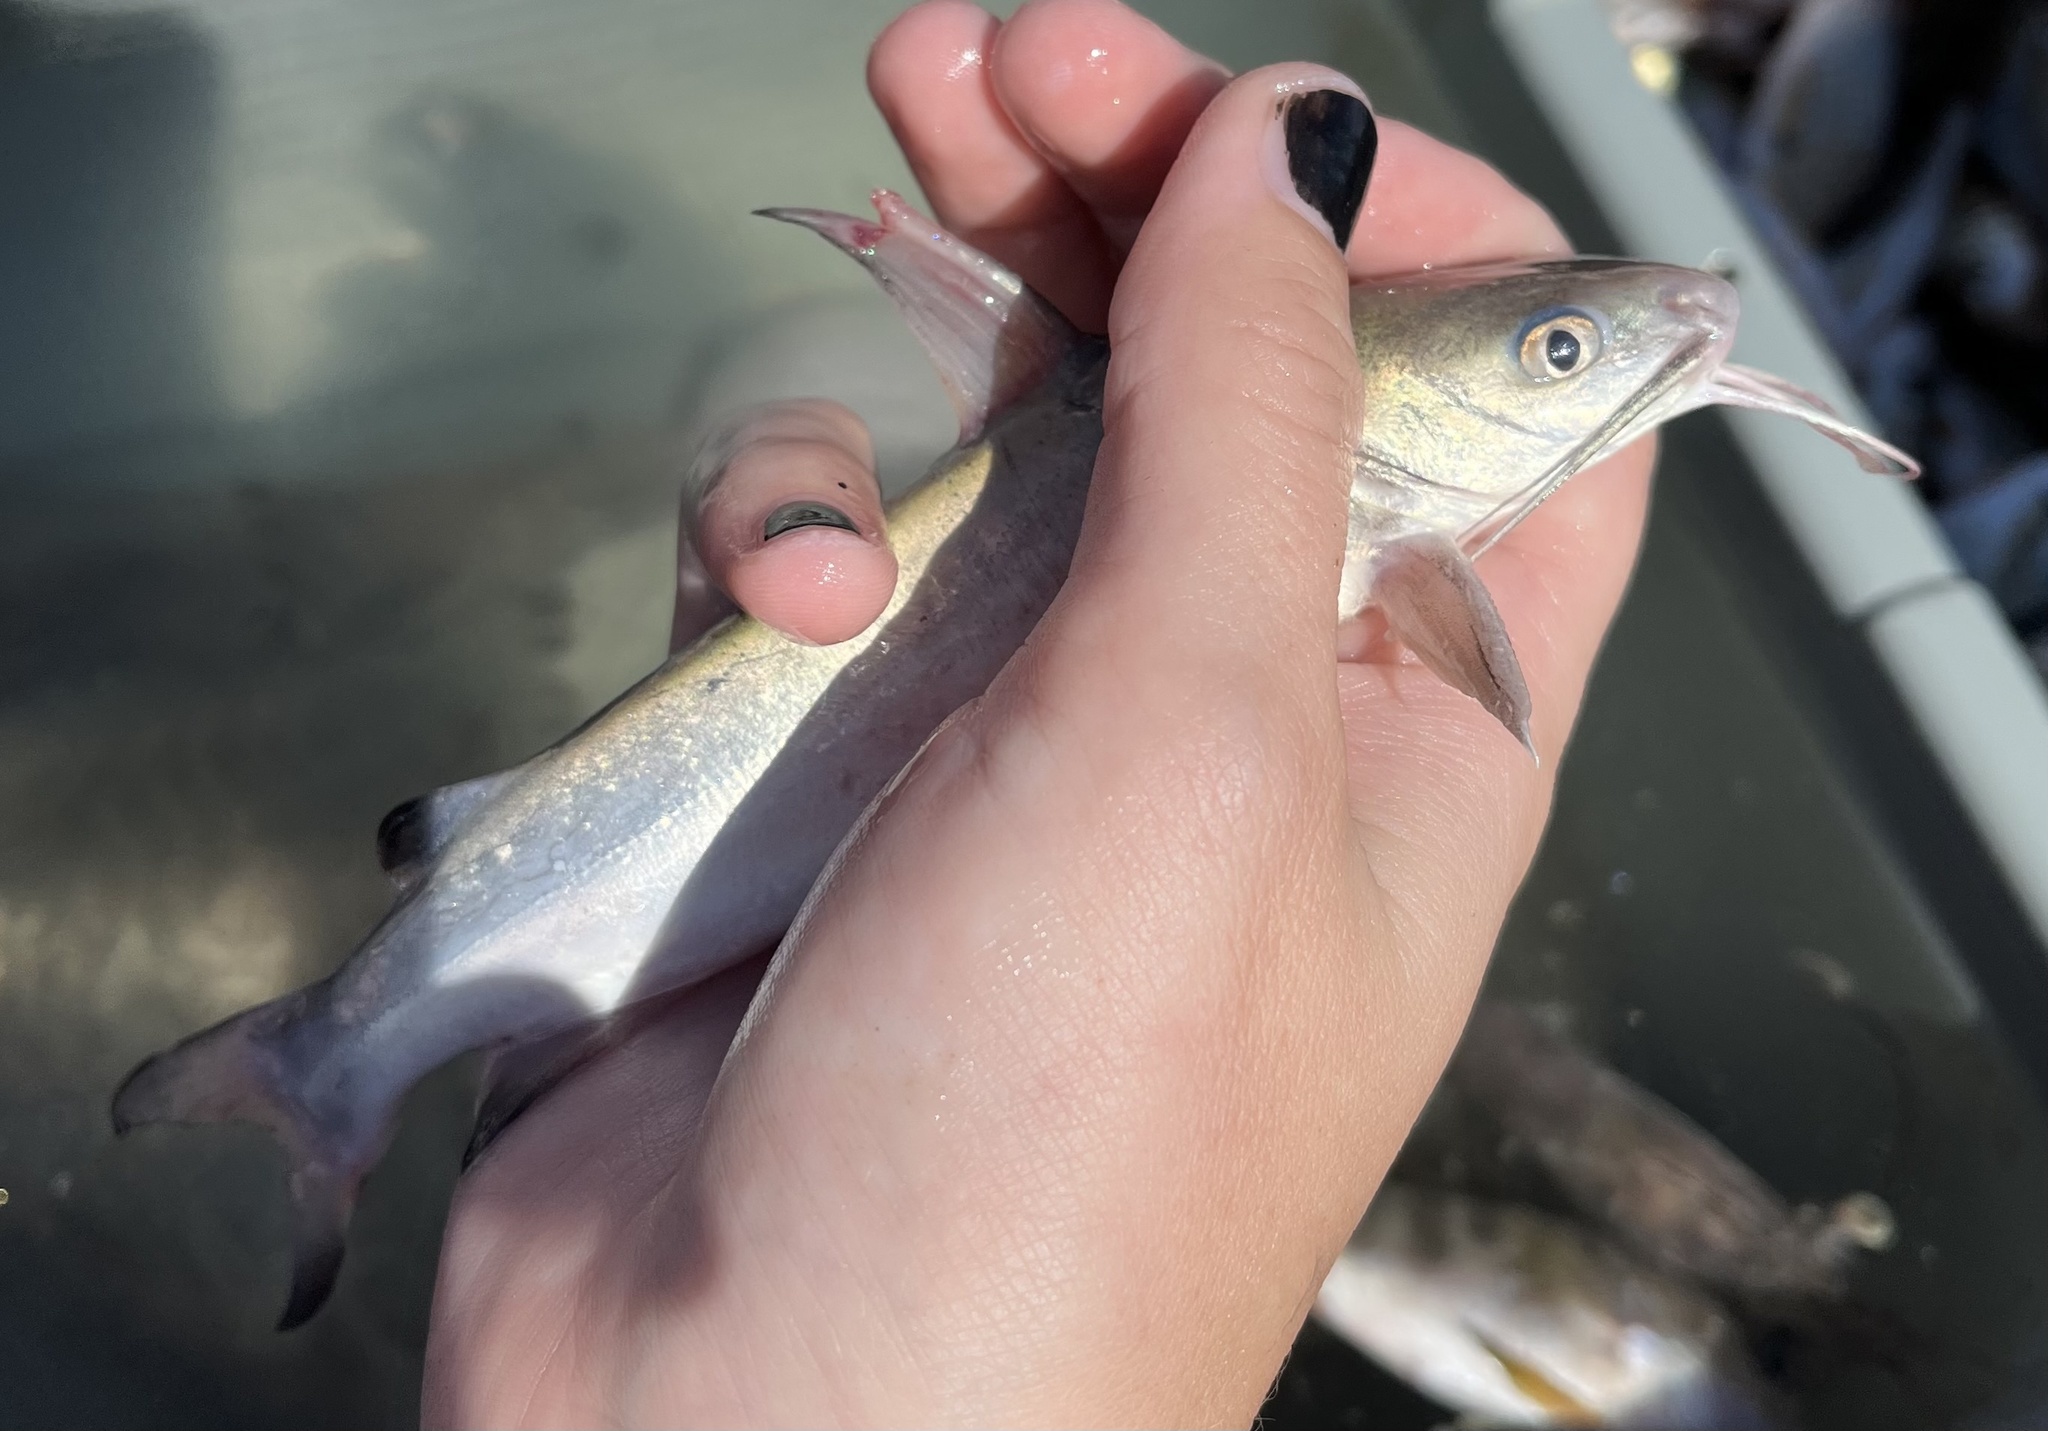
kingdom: Animalia
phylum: Chordata
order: Siluriformes
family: Ariidae
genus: Ariopsis
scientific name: Ariopsis felis
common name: Hardhead catfish
